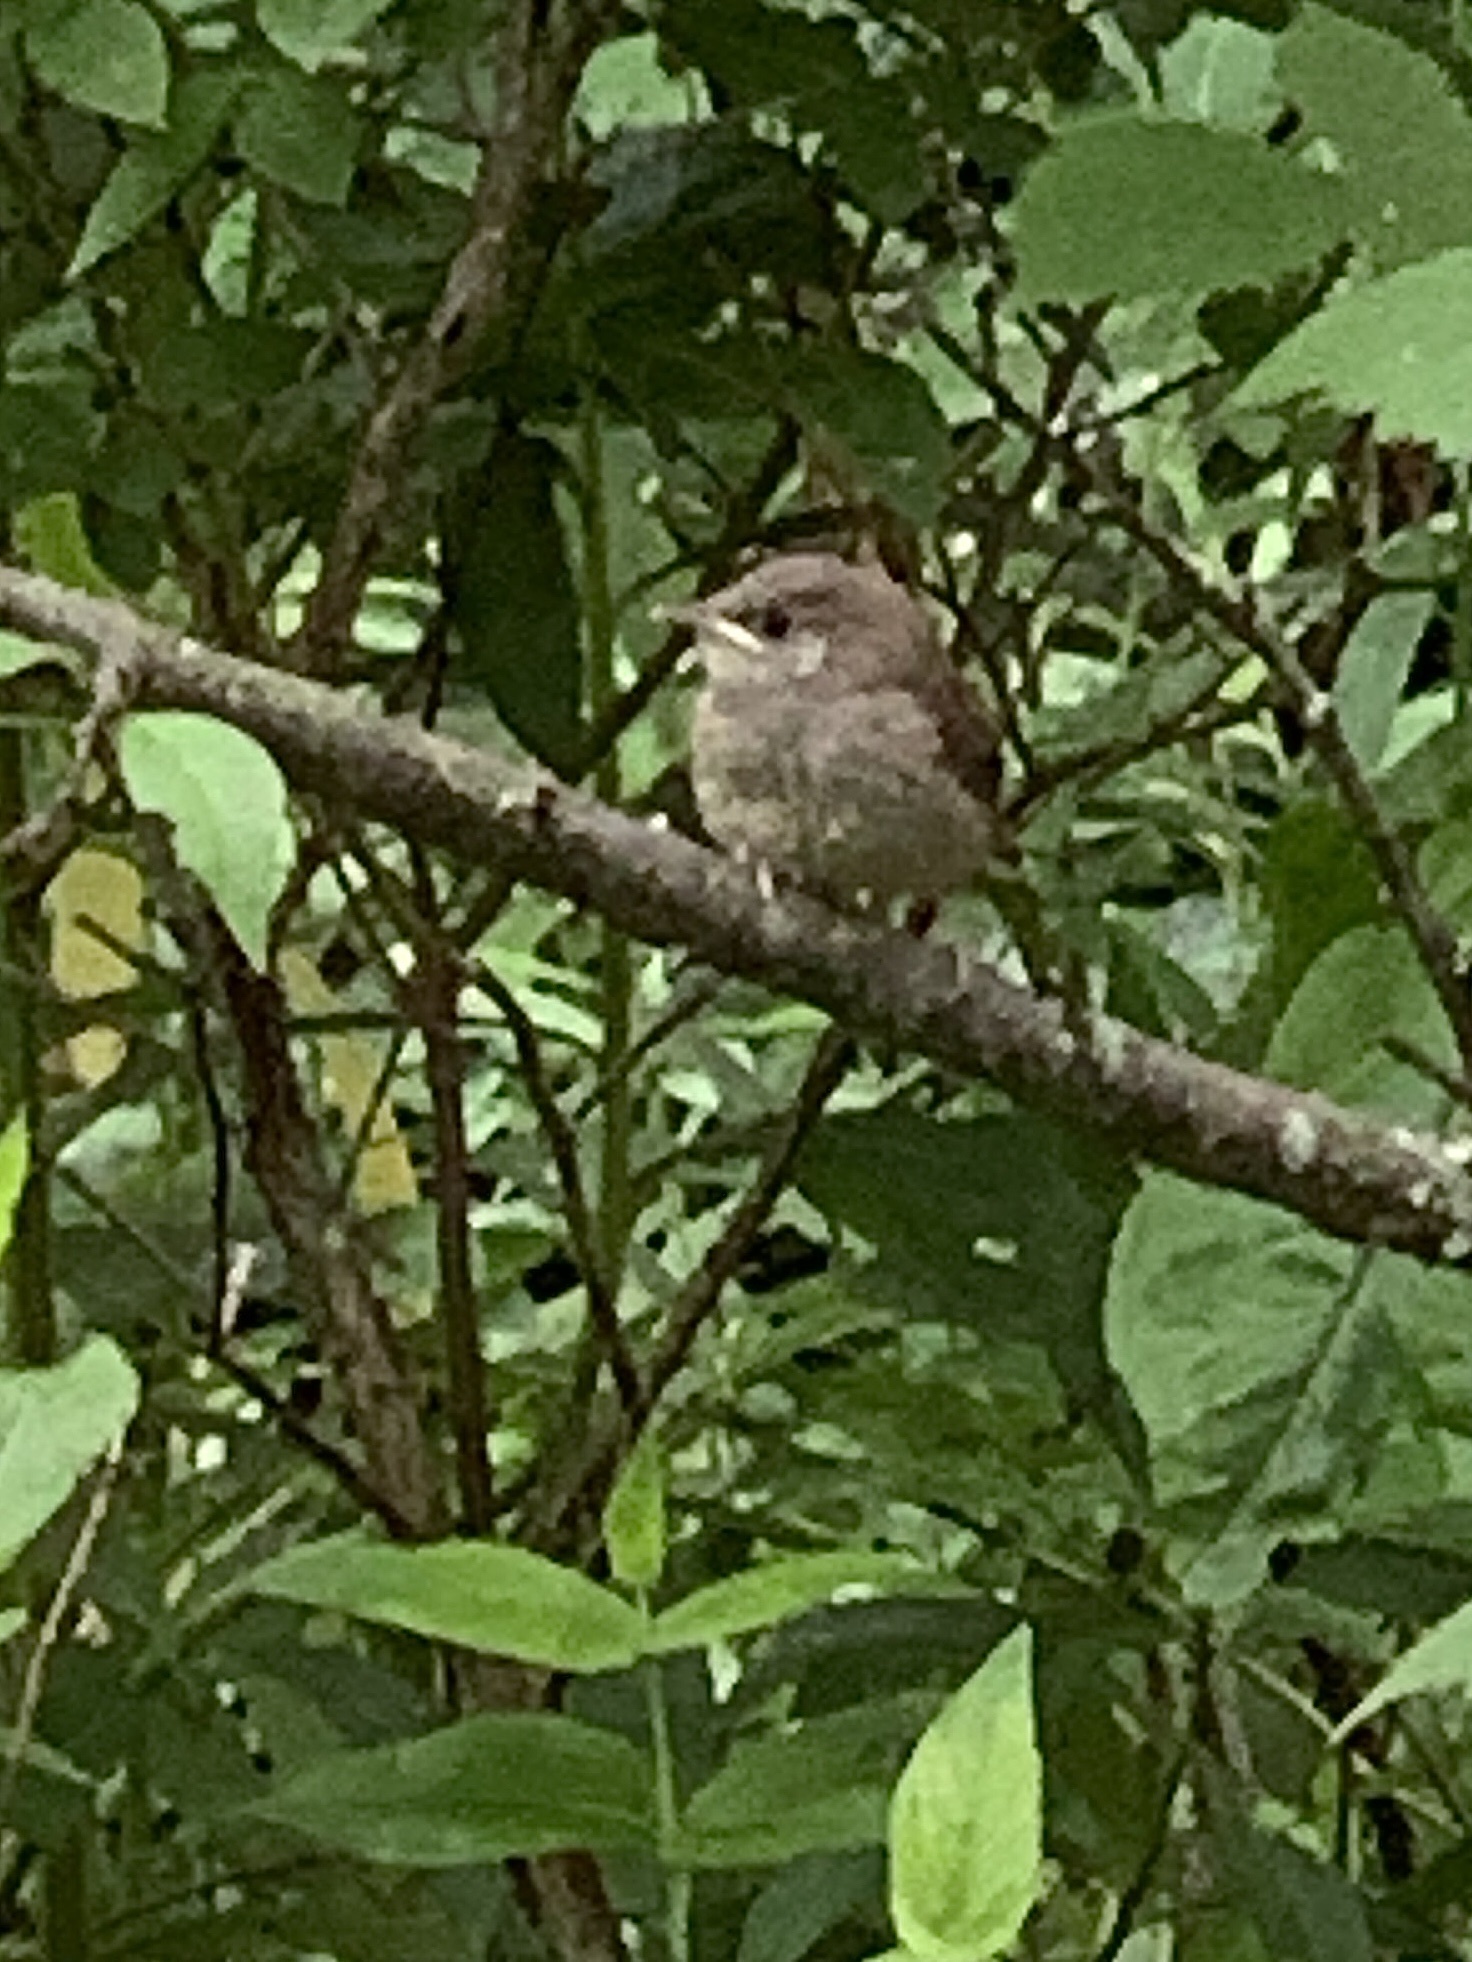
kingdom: Animalia
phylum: Chordata
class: Aves
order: Passeriformes
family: Troglodytidae
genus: Troglodytes
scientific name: Troglodytes aedon
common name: House wren
